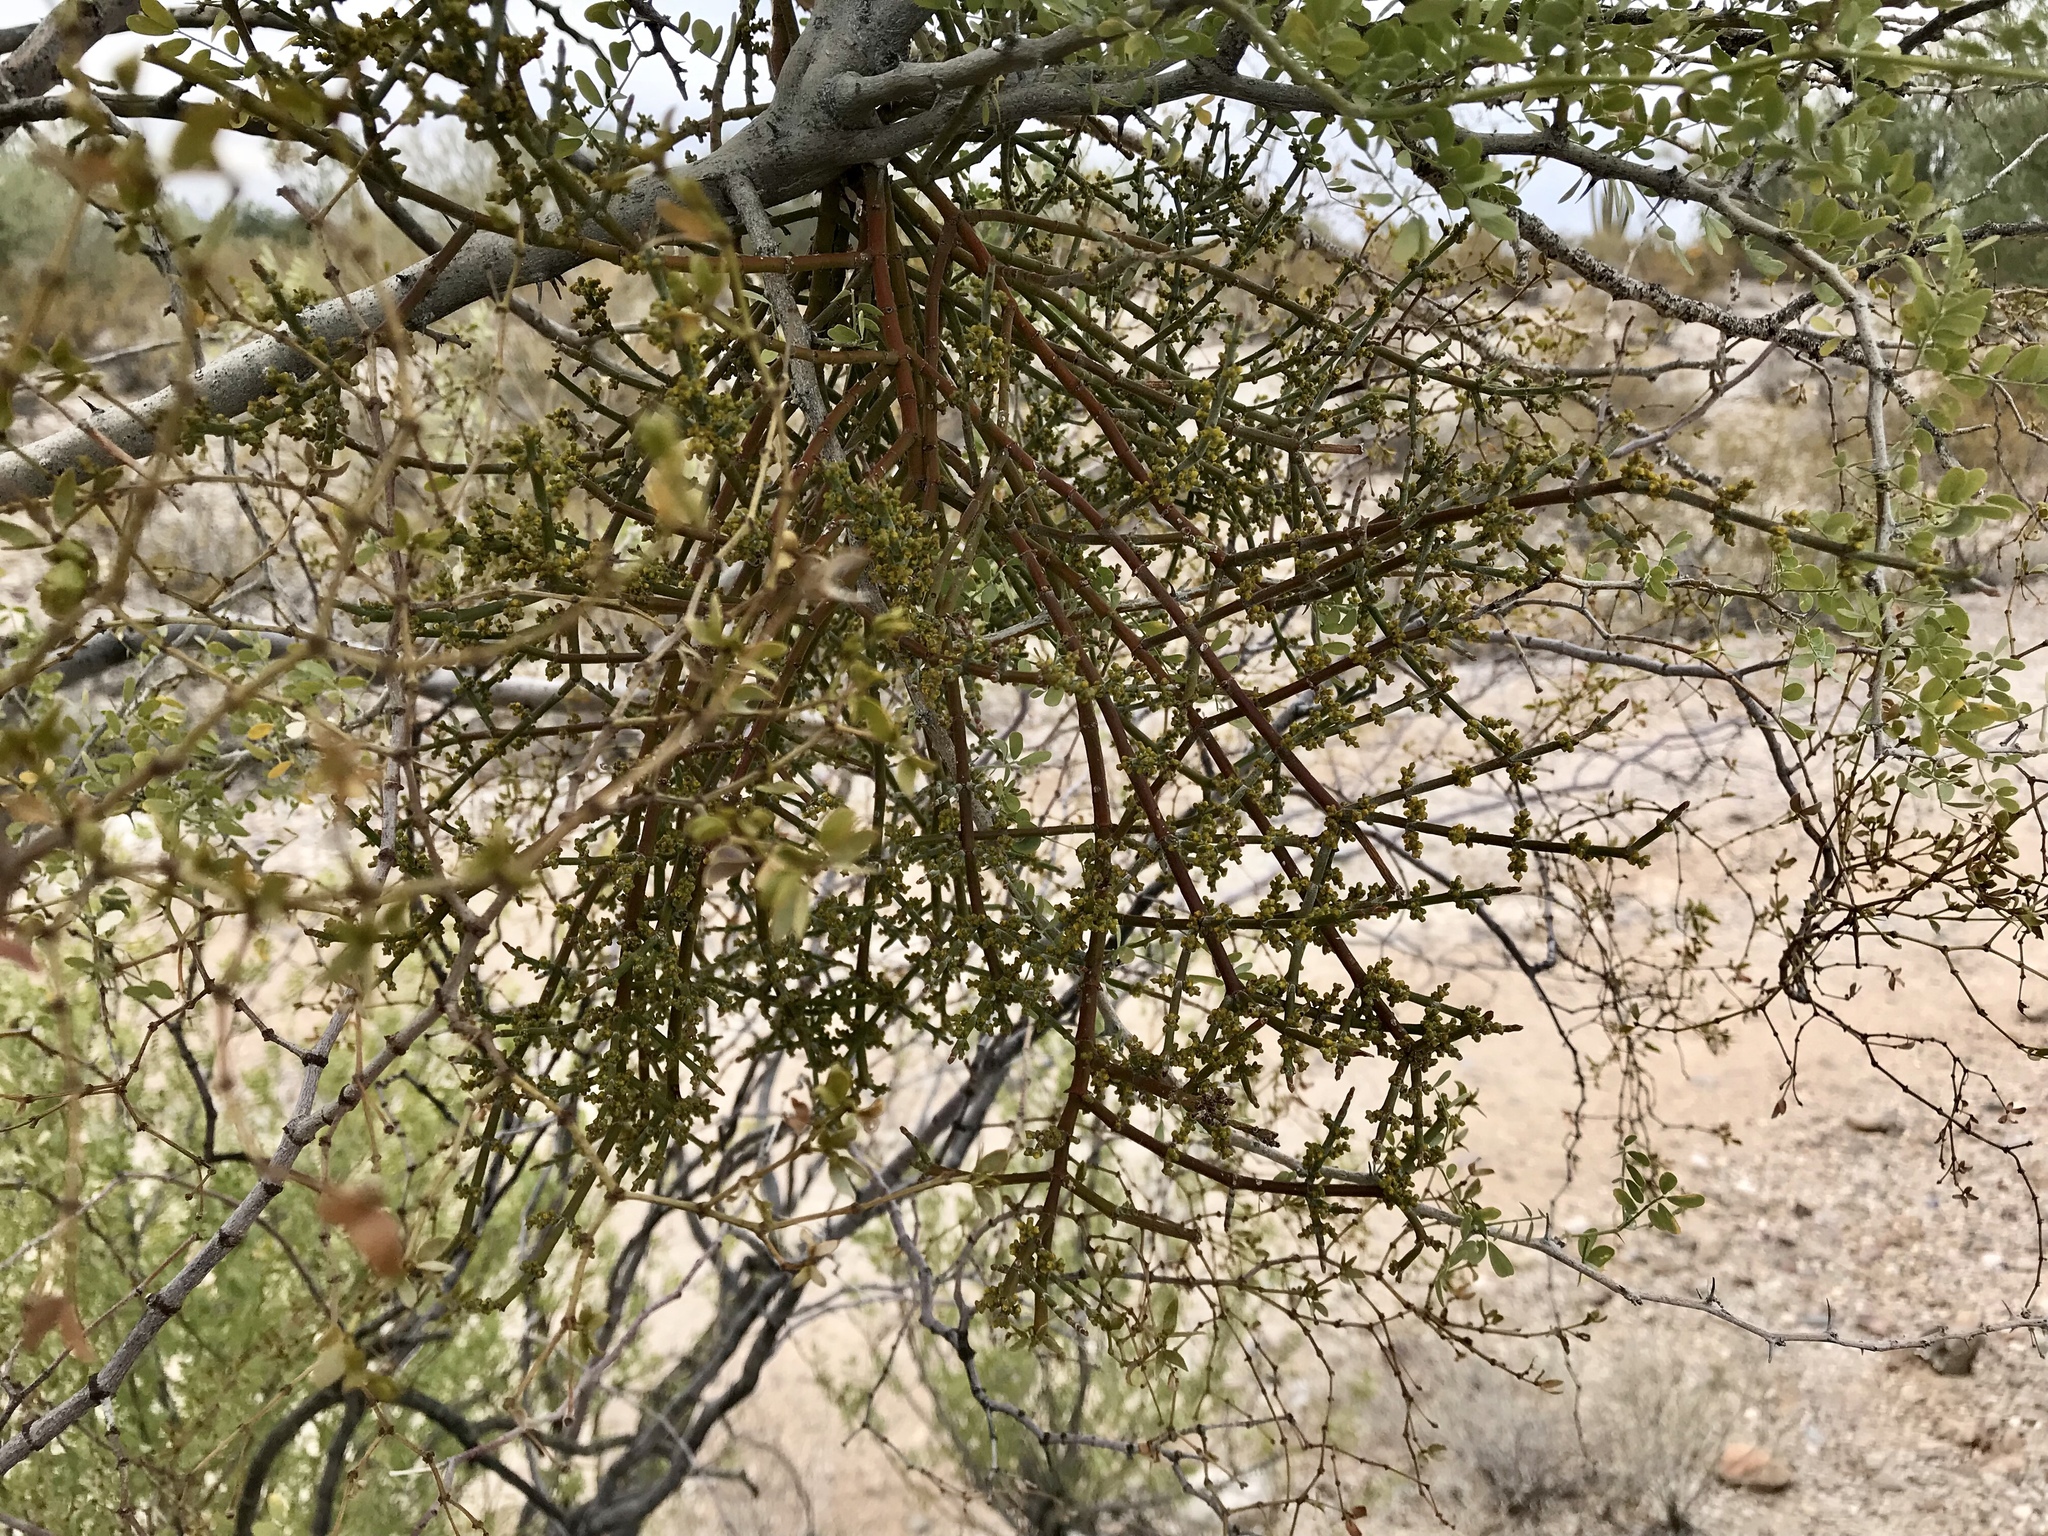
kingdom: Plantae
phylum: Tracheophyta
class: Magnoliopsida
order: Zygophyllales
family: Zygophyllaceae
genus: Larrea
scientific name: Larrea tridentata
